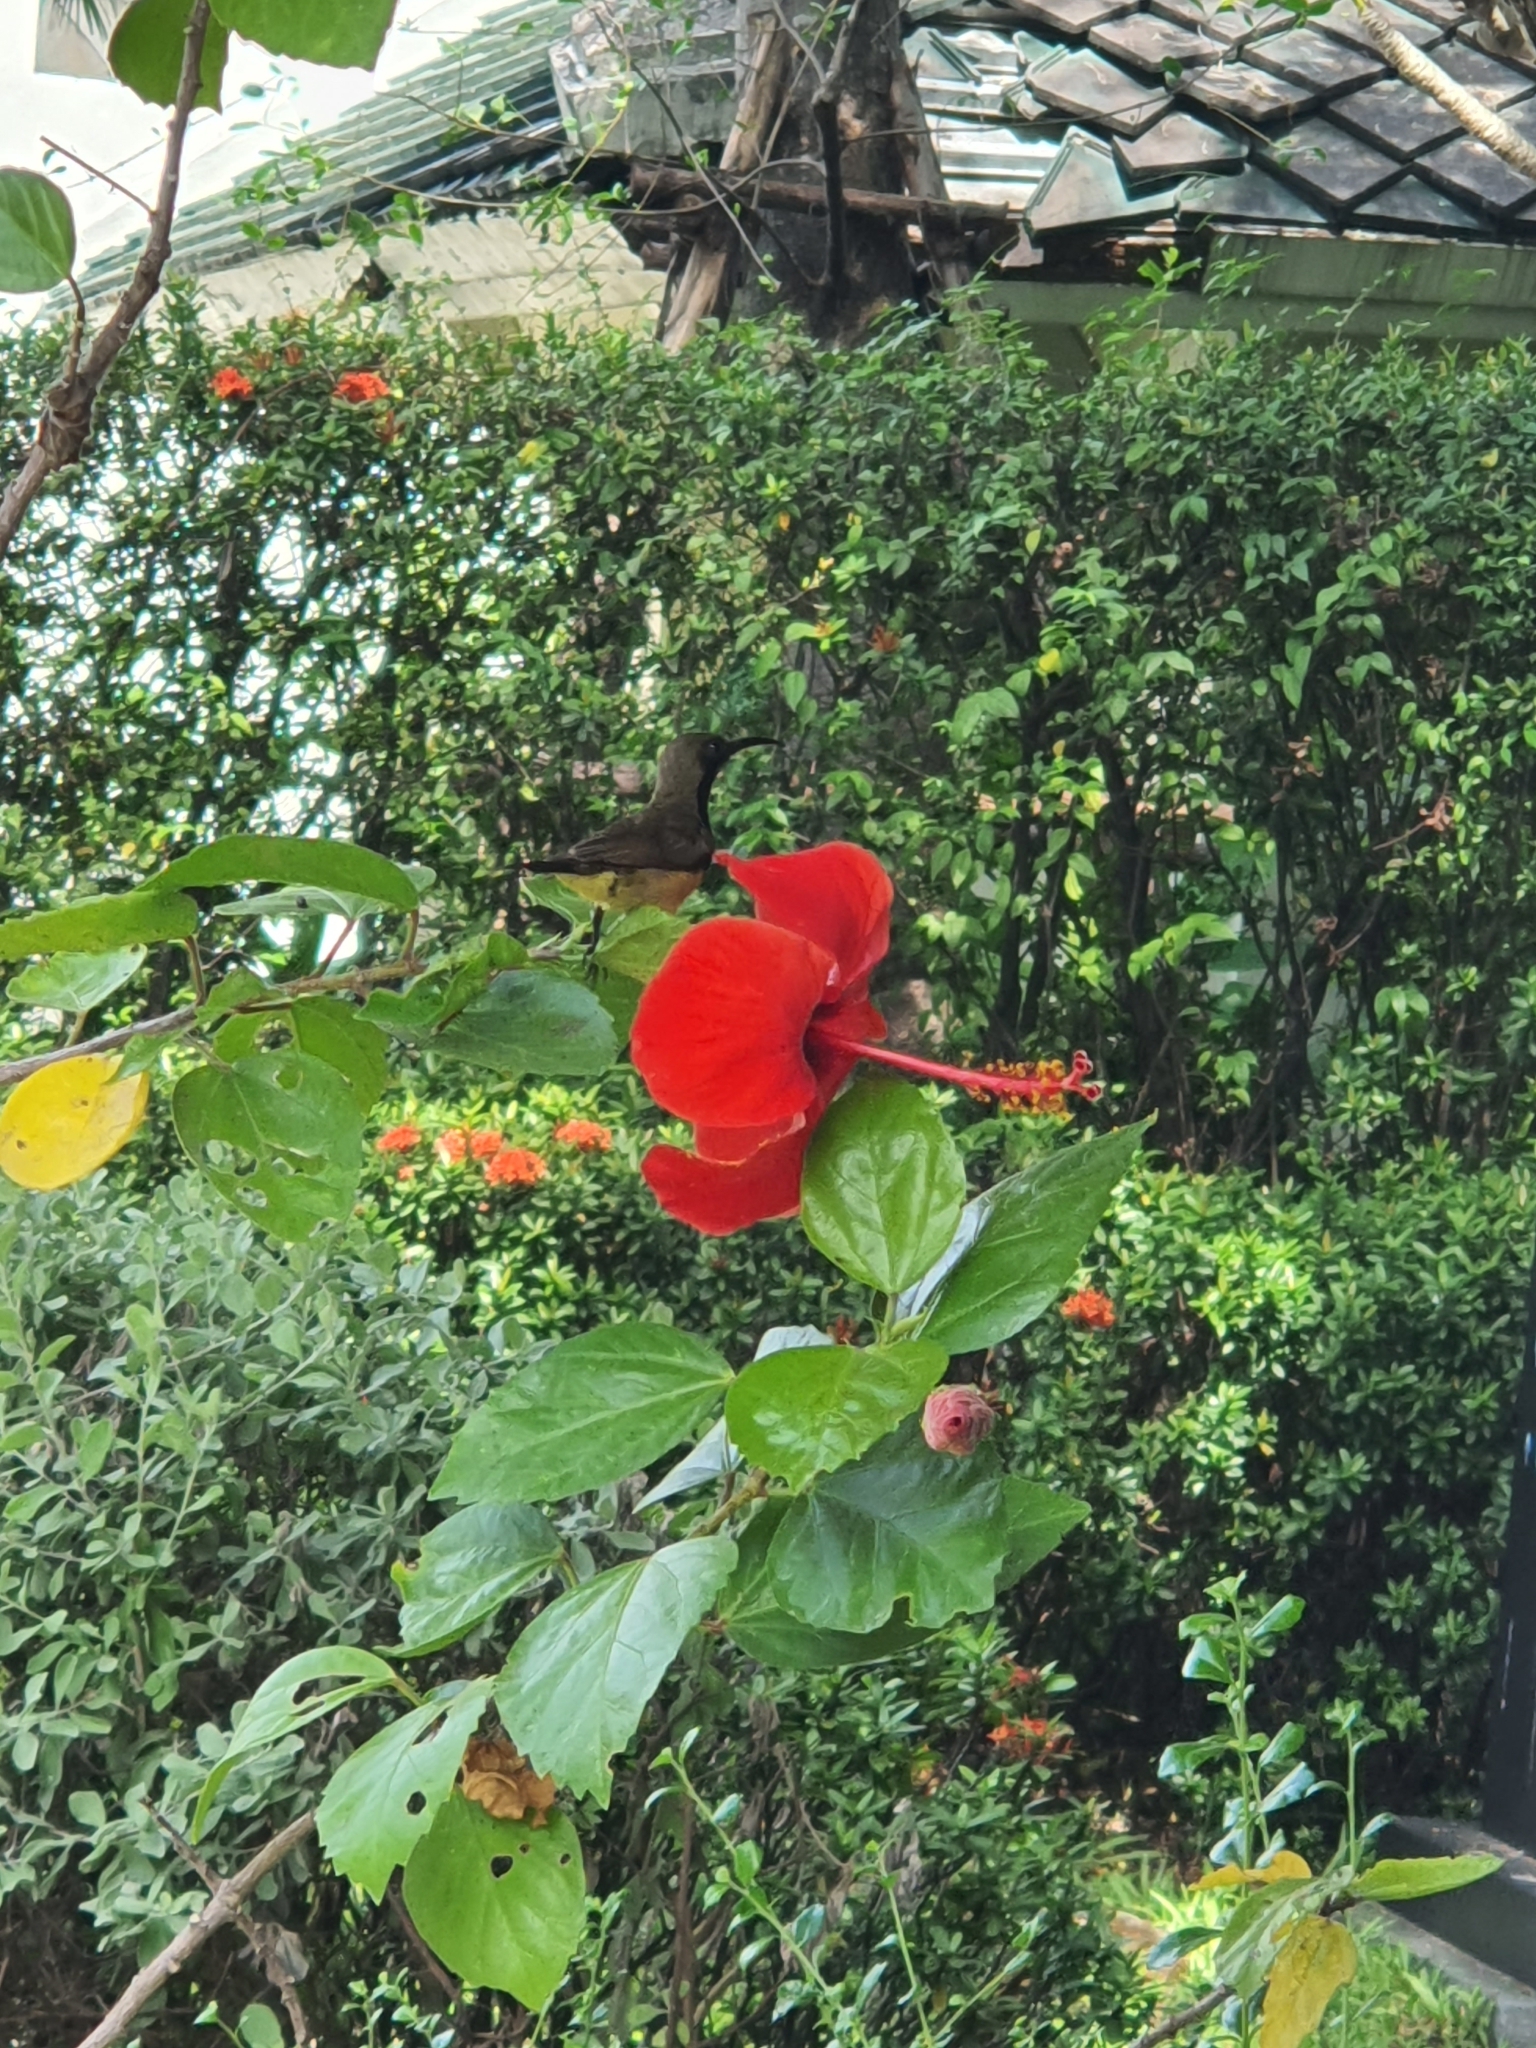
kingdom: Animalia
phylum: Chordata
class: Aves
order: Passeriformes
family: Nectariniidae
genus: Cinnyris
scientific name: Cinnyris
